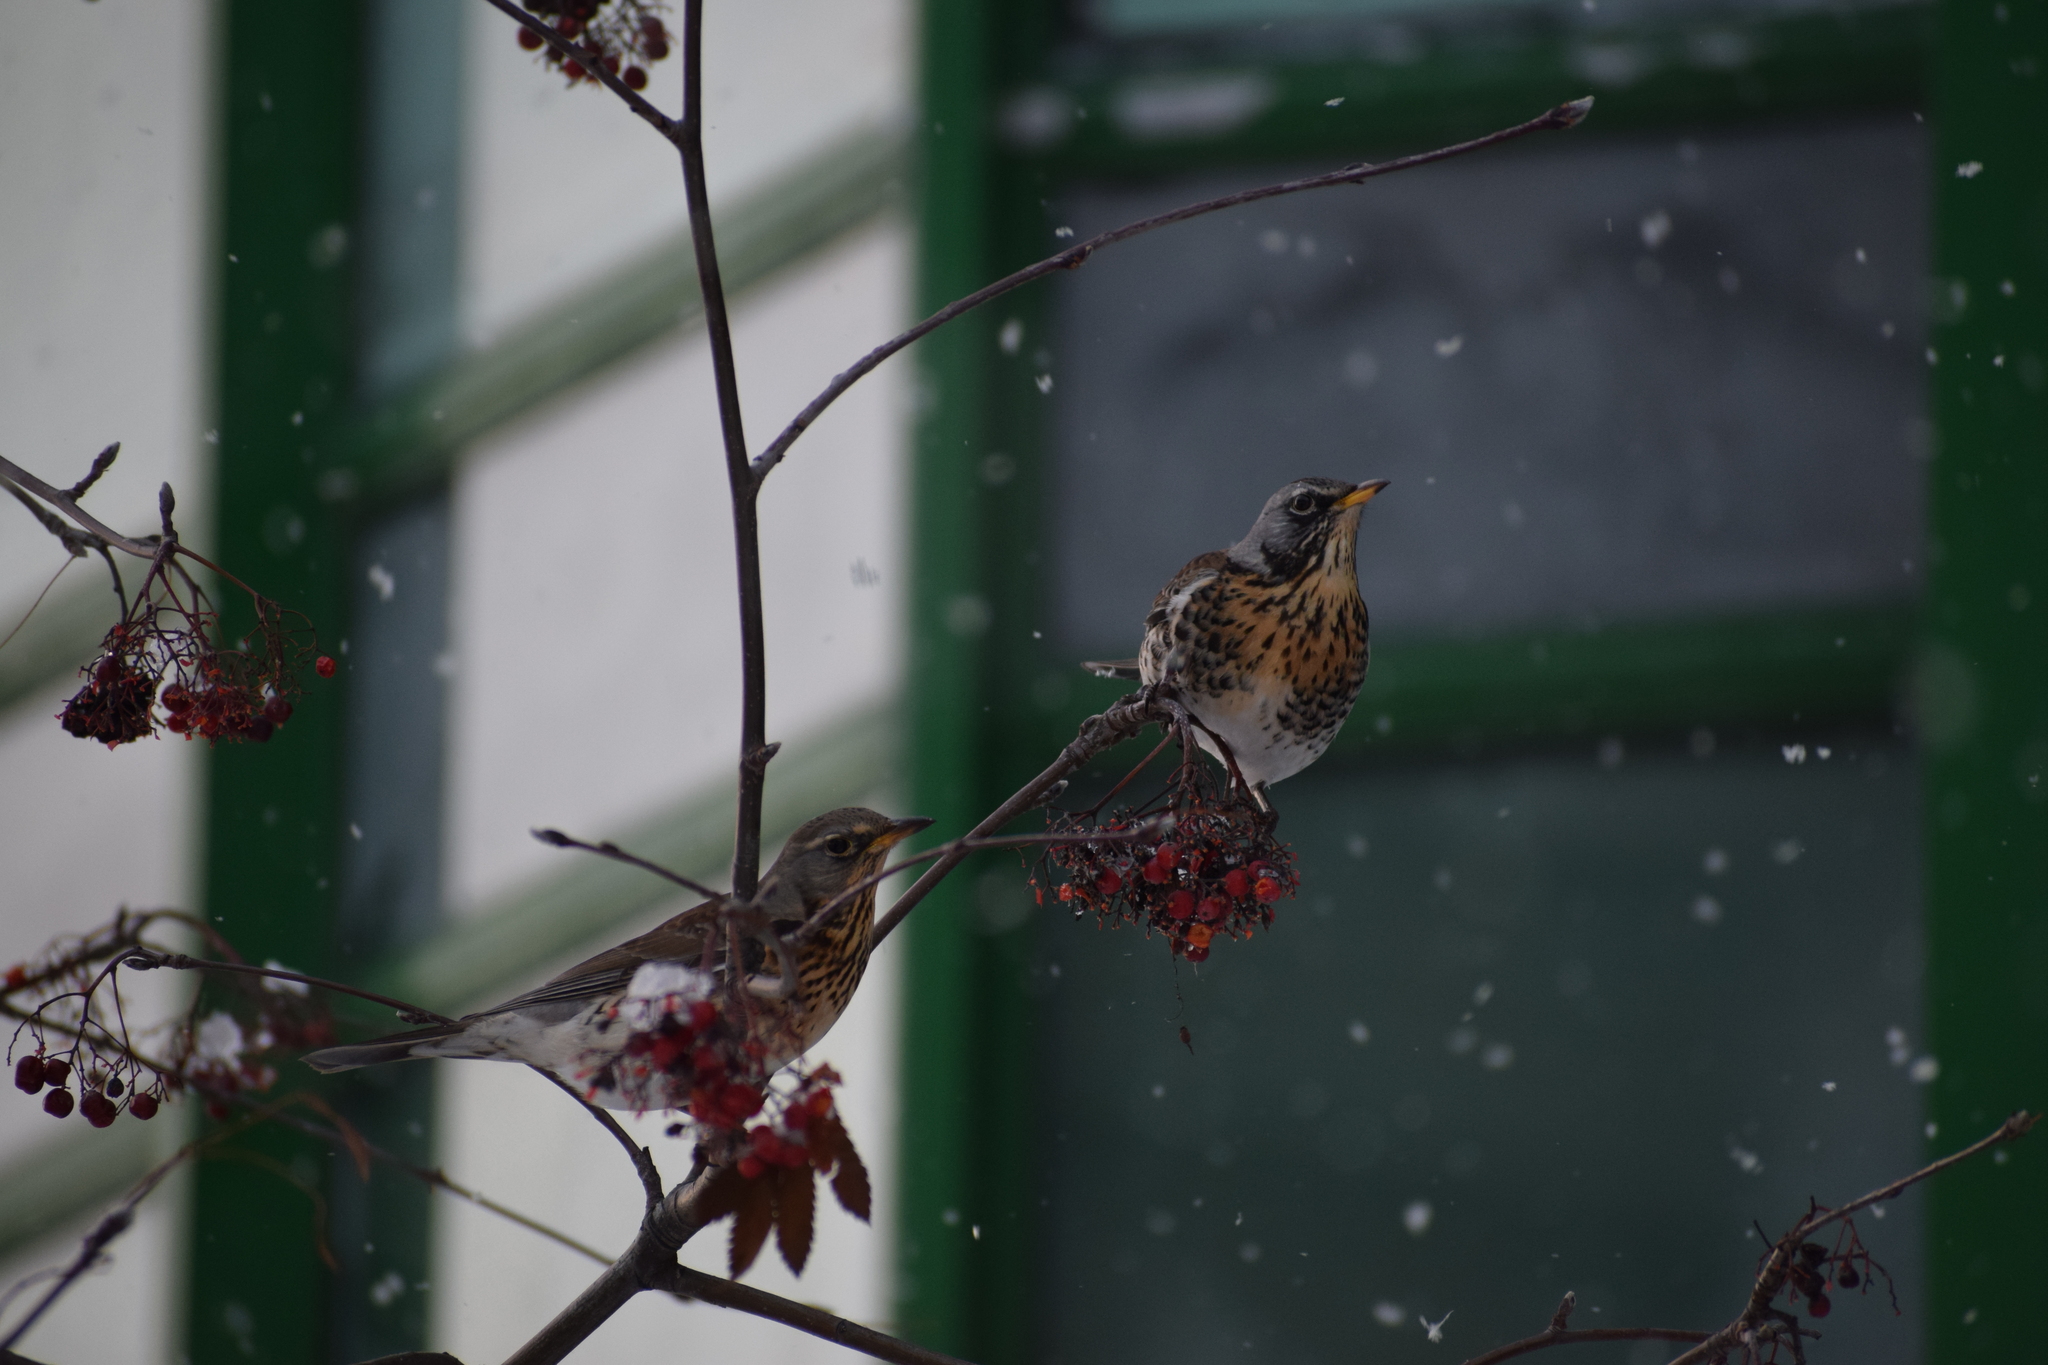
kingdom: Animalia
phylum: Chordata
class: Aves
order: Passeriformes
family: Turdidae
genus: Turdus
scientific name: Turdus pilaris
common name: Fieldfare
